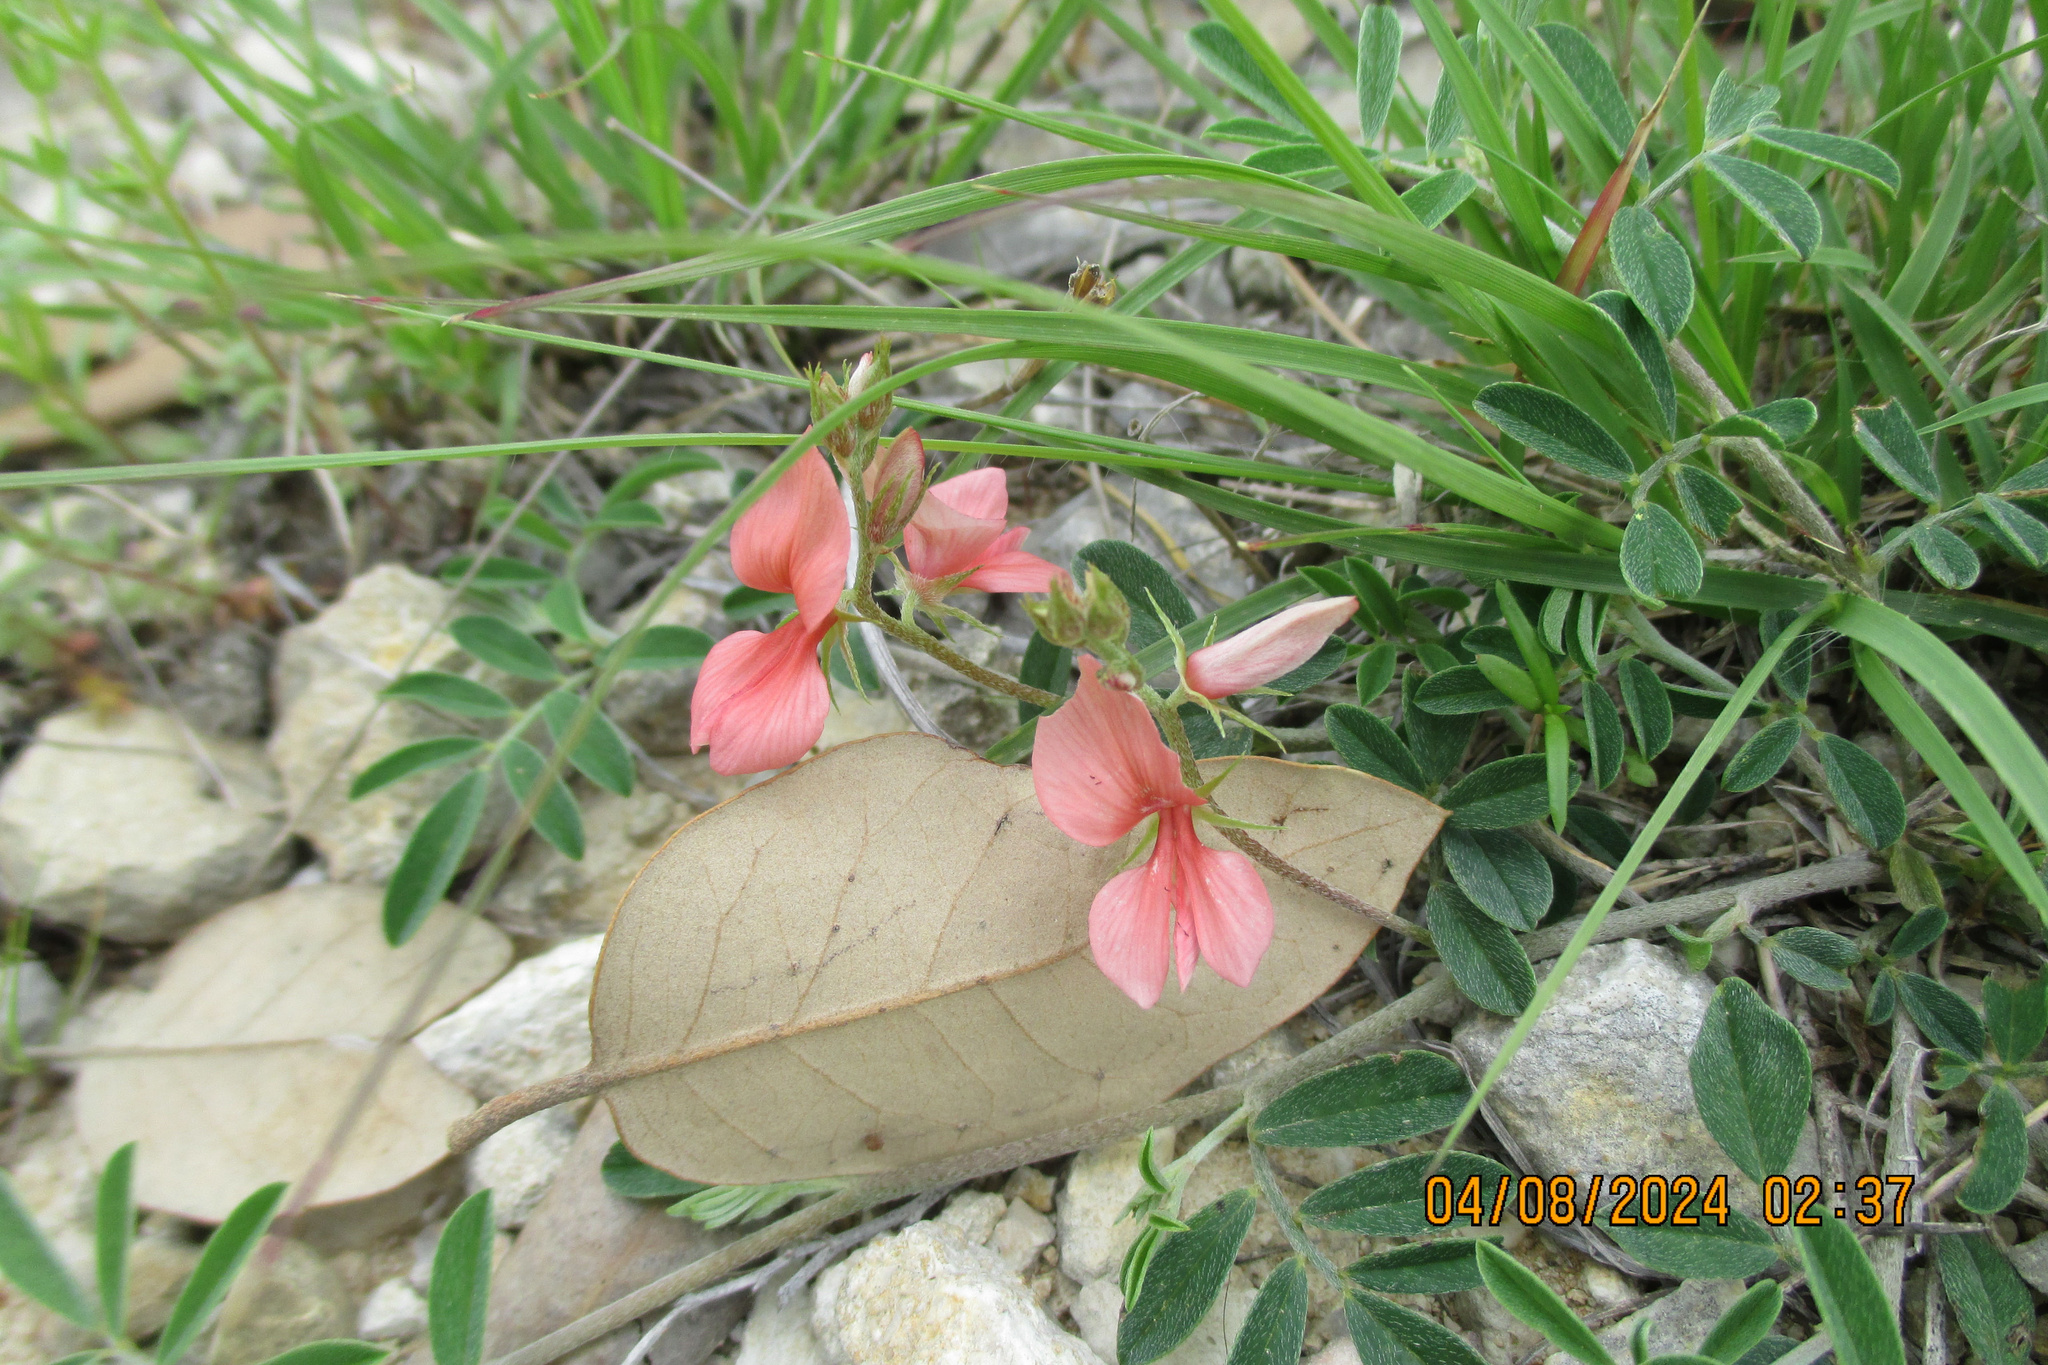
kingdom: Plantae
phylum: Tracheophyta
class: Magnoliopsida
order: Fabales
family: Fabaceae
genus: Indigofera
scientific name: Indigofera miniata
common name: Coast indigo
